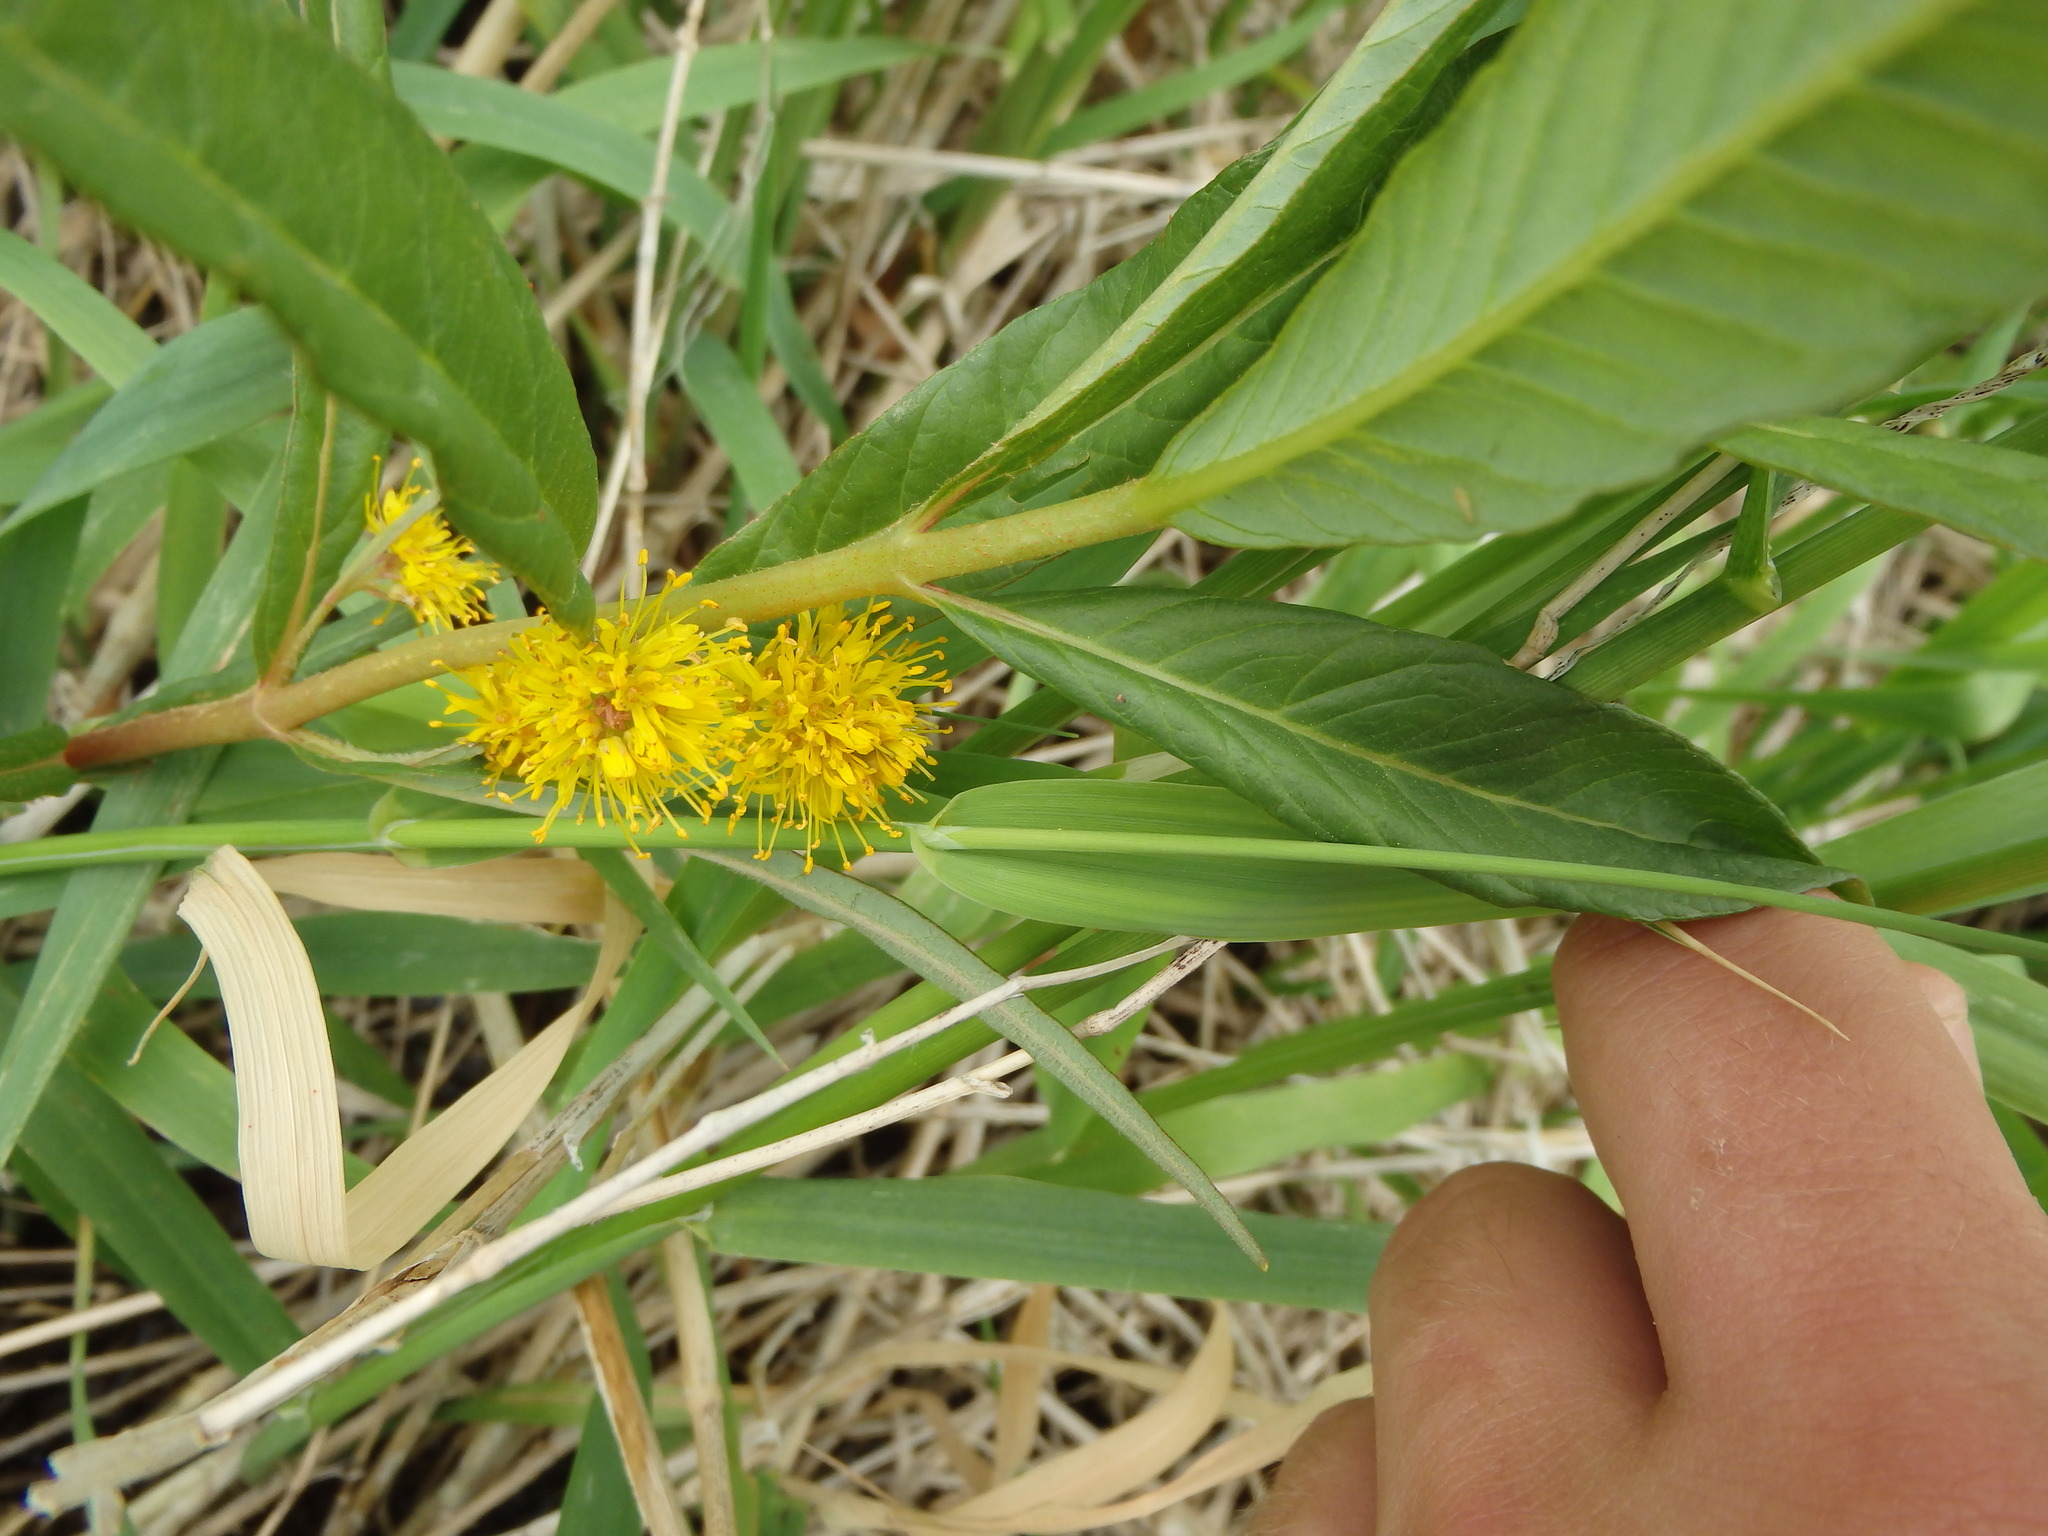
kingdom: Plantae
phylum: Tracheophyta
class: Magnoliopsida
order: Ericales
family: Primulaceae
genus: Lysimachia
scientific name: Lysimachia thyrsiflora
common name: Tufted loosestrife
